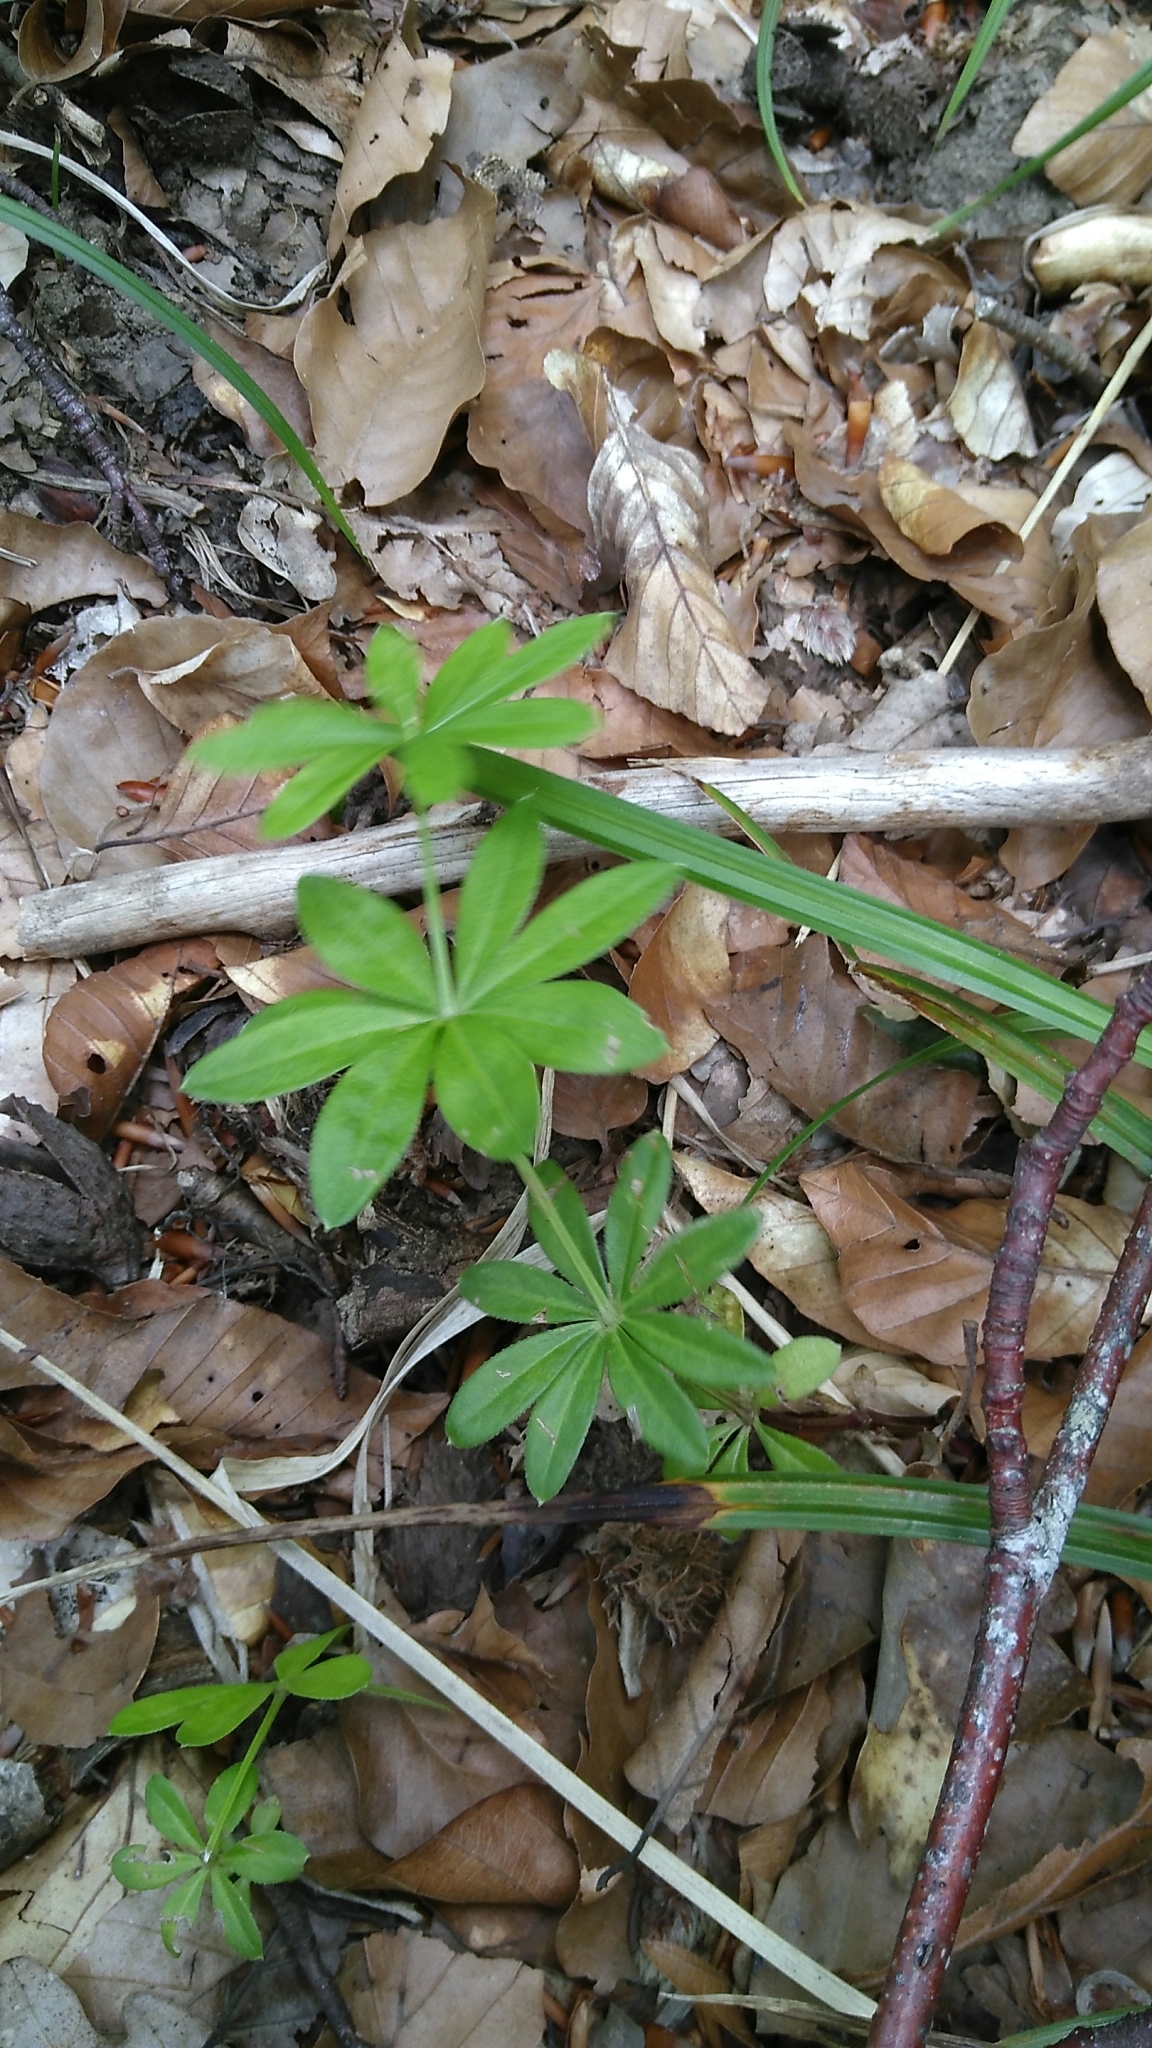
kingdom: Plantae
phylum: Tracheophyta
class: Magnoliopsida
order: Gentianales
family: Rubiaceae
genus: Galium
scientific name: Galium odoratum
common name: Sweet woodruff
